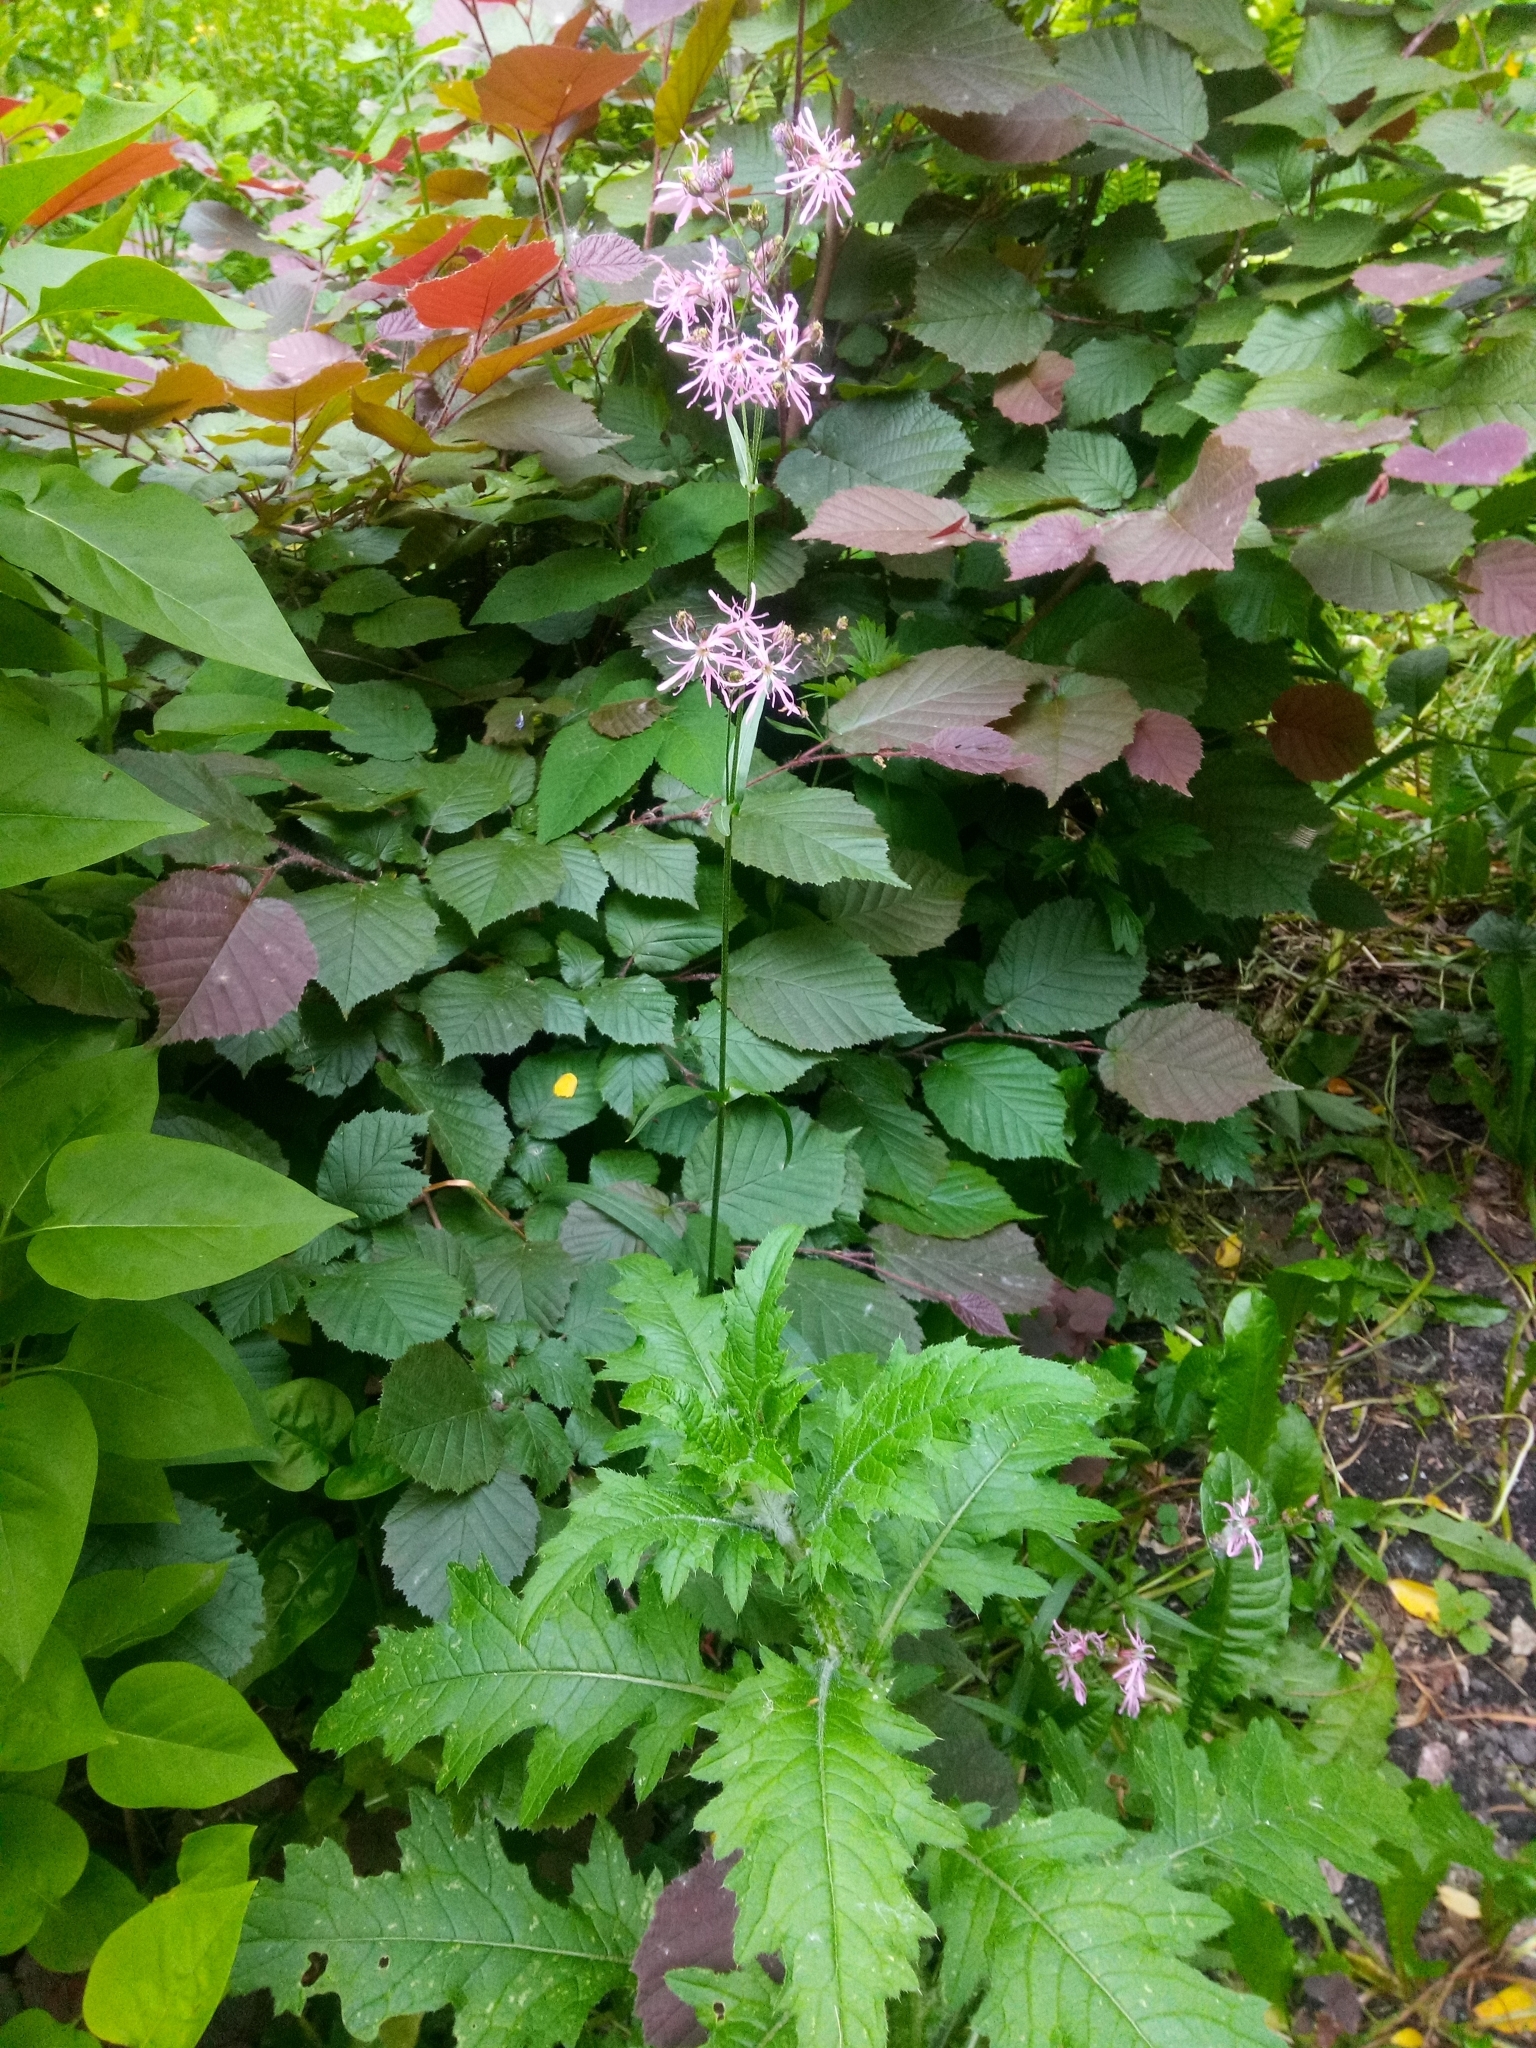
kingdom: Plantae
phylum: Tracheophyta
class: Magnoliopsida
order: Caryophyllales
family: Caryophyllaceae
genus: Silene
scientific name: Silene flos-cuculi
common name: Ragged-robin
